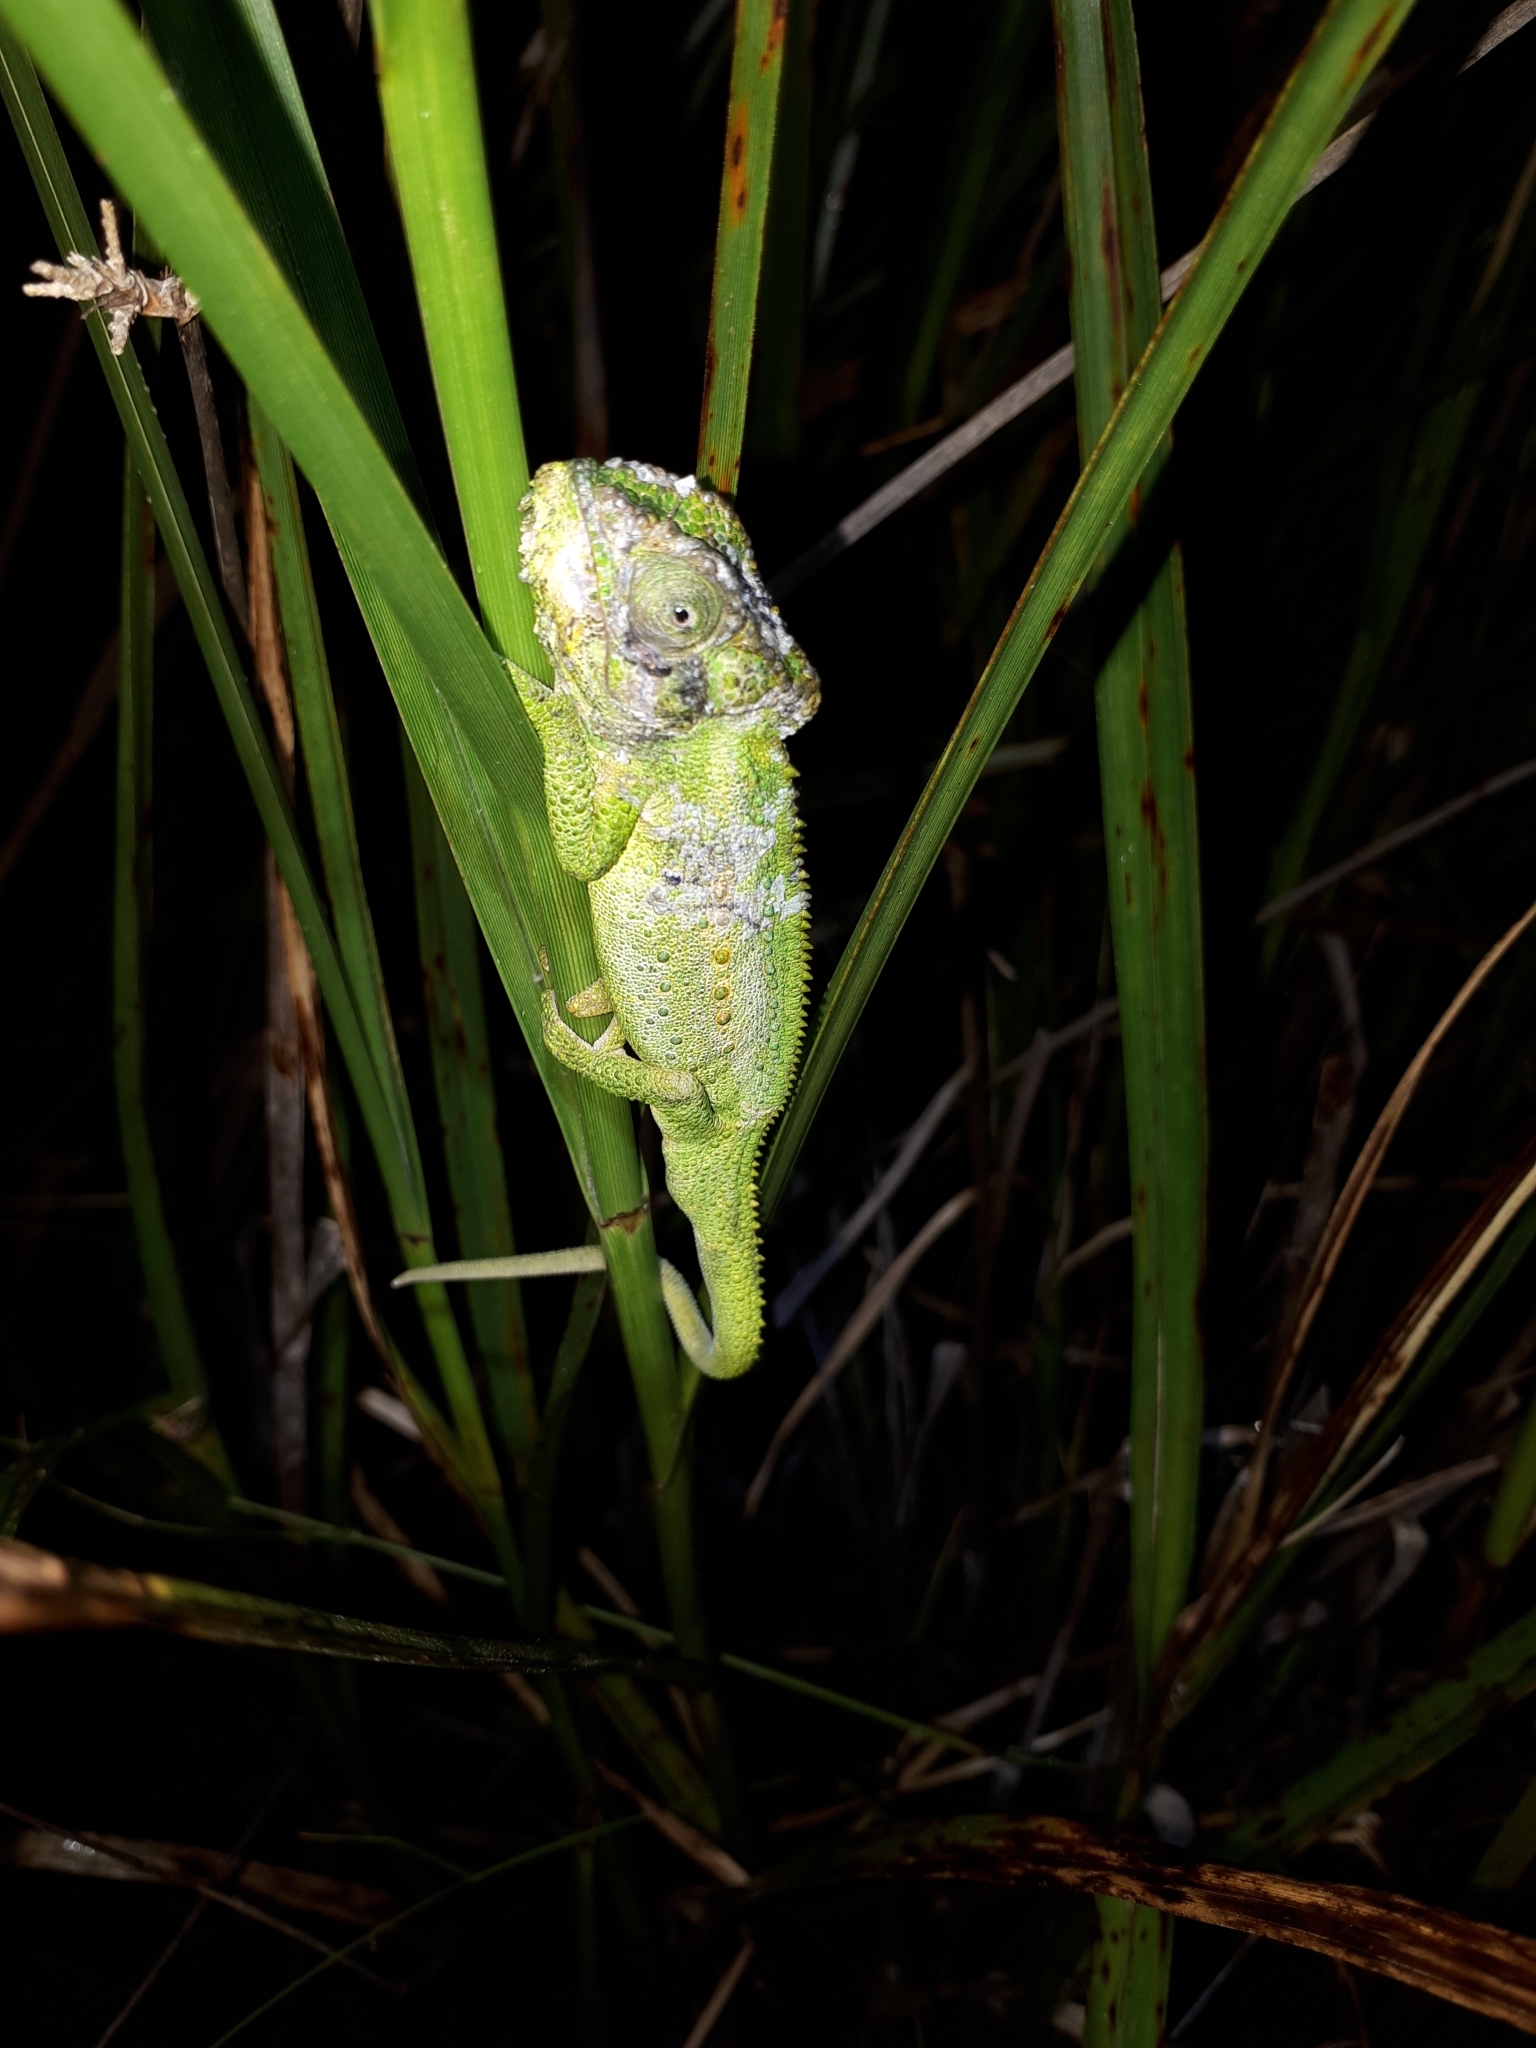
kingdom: Animalia
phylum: Chordata
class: Squamata
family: Chamaeleonidae
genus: Bradypodion
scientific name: Bradypodion pumilum
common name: Cape dwarf chameleon
